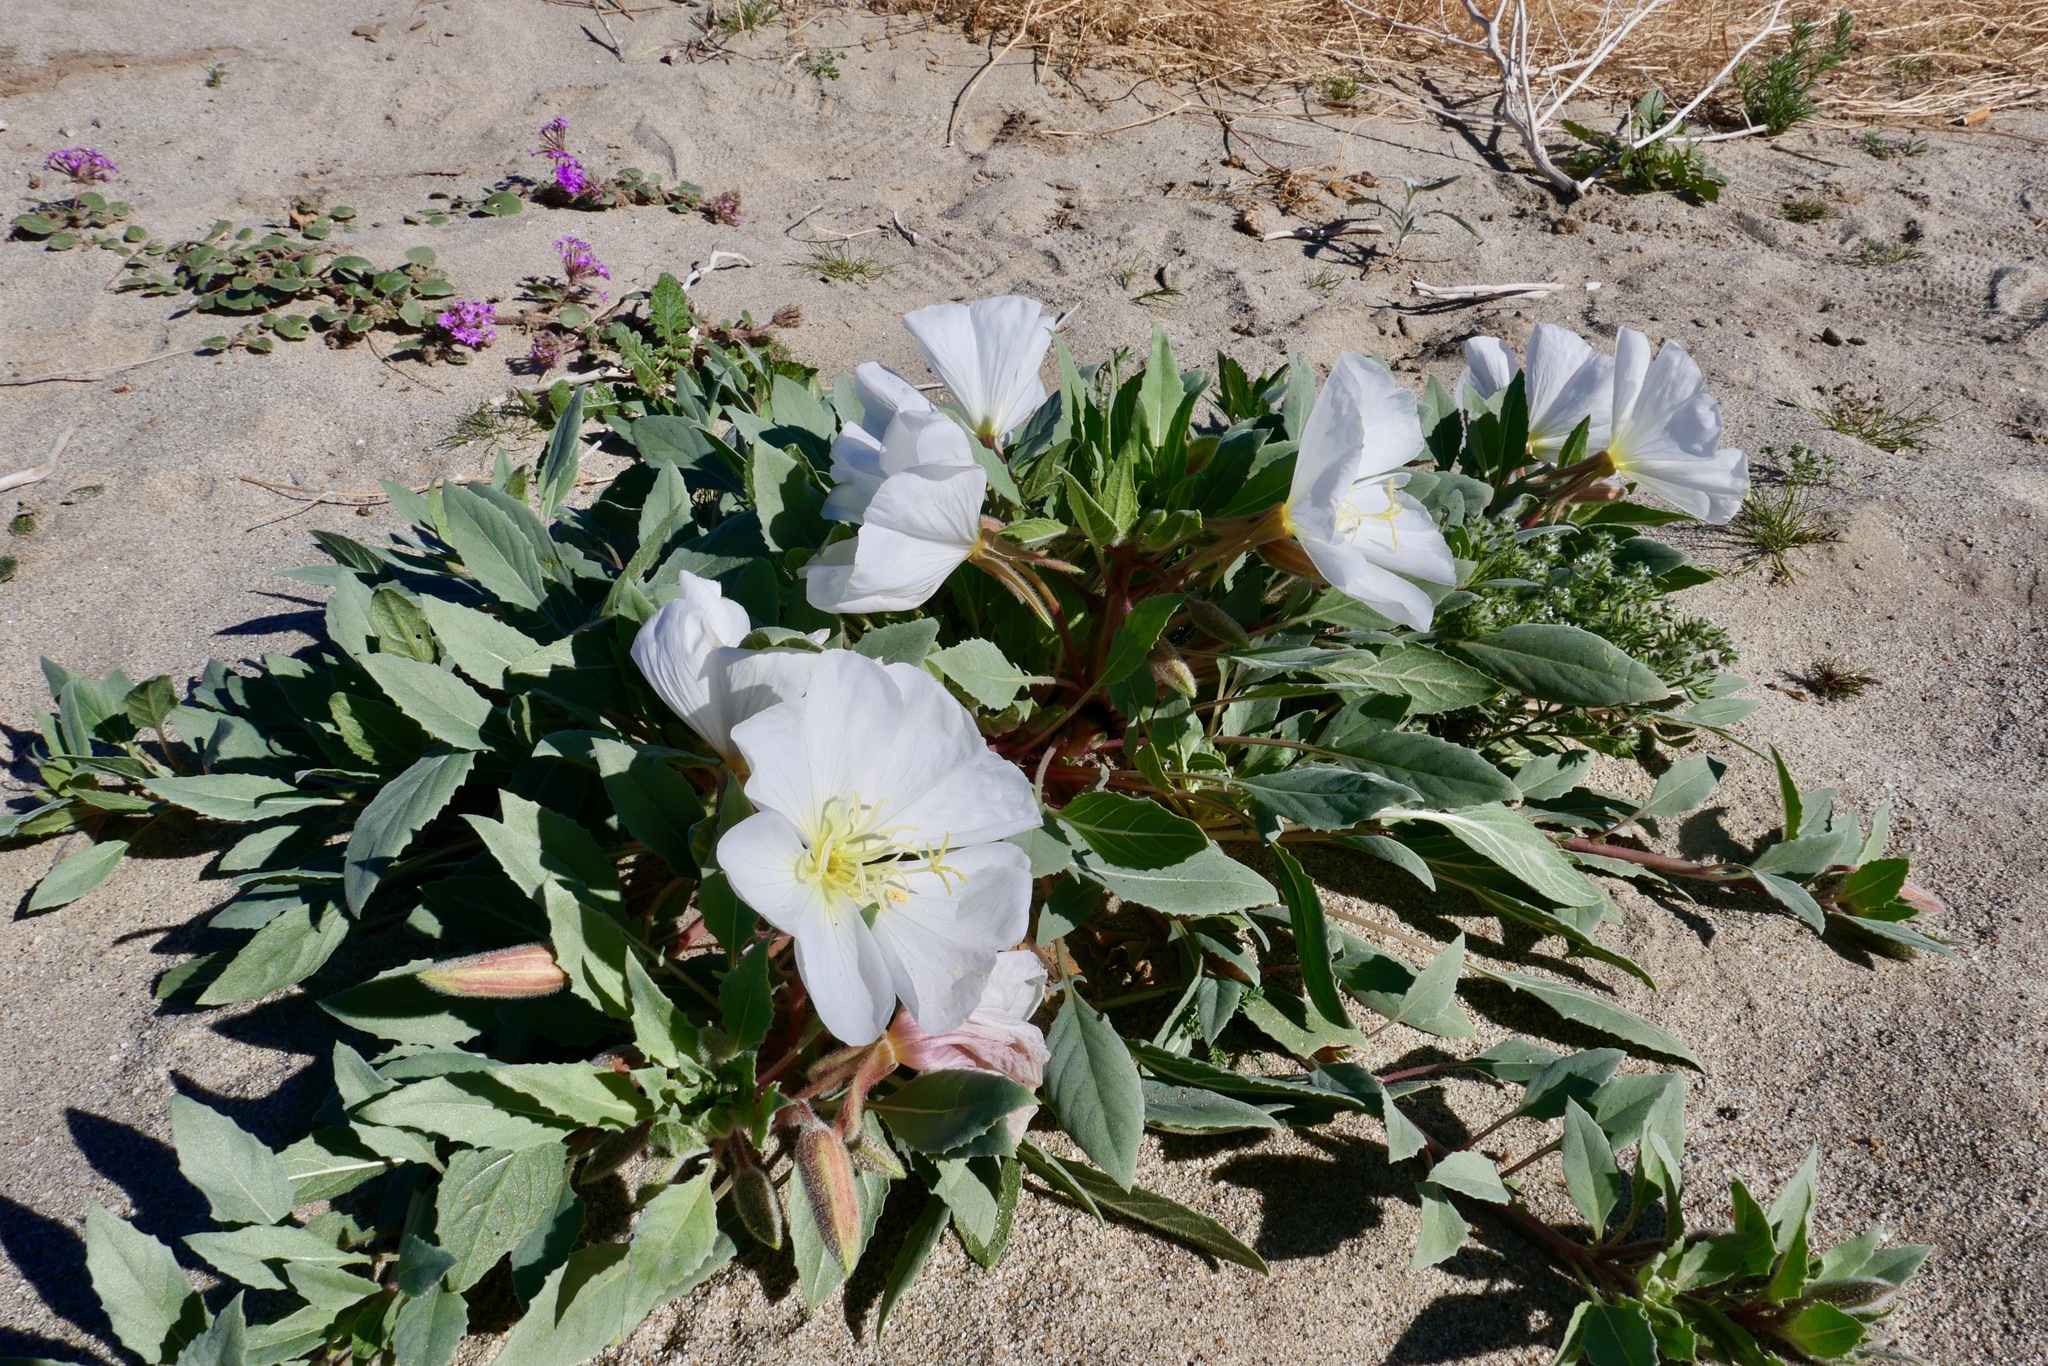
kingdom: Plantae
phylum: Tracheophyta
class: Magnoliopsida
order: Myrtales
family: Onagraceae
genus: Oenothera
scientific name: Oenothera deltoides
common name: Basket evening-primrose
